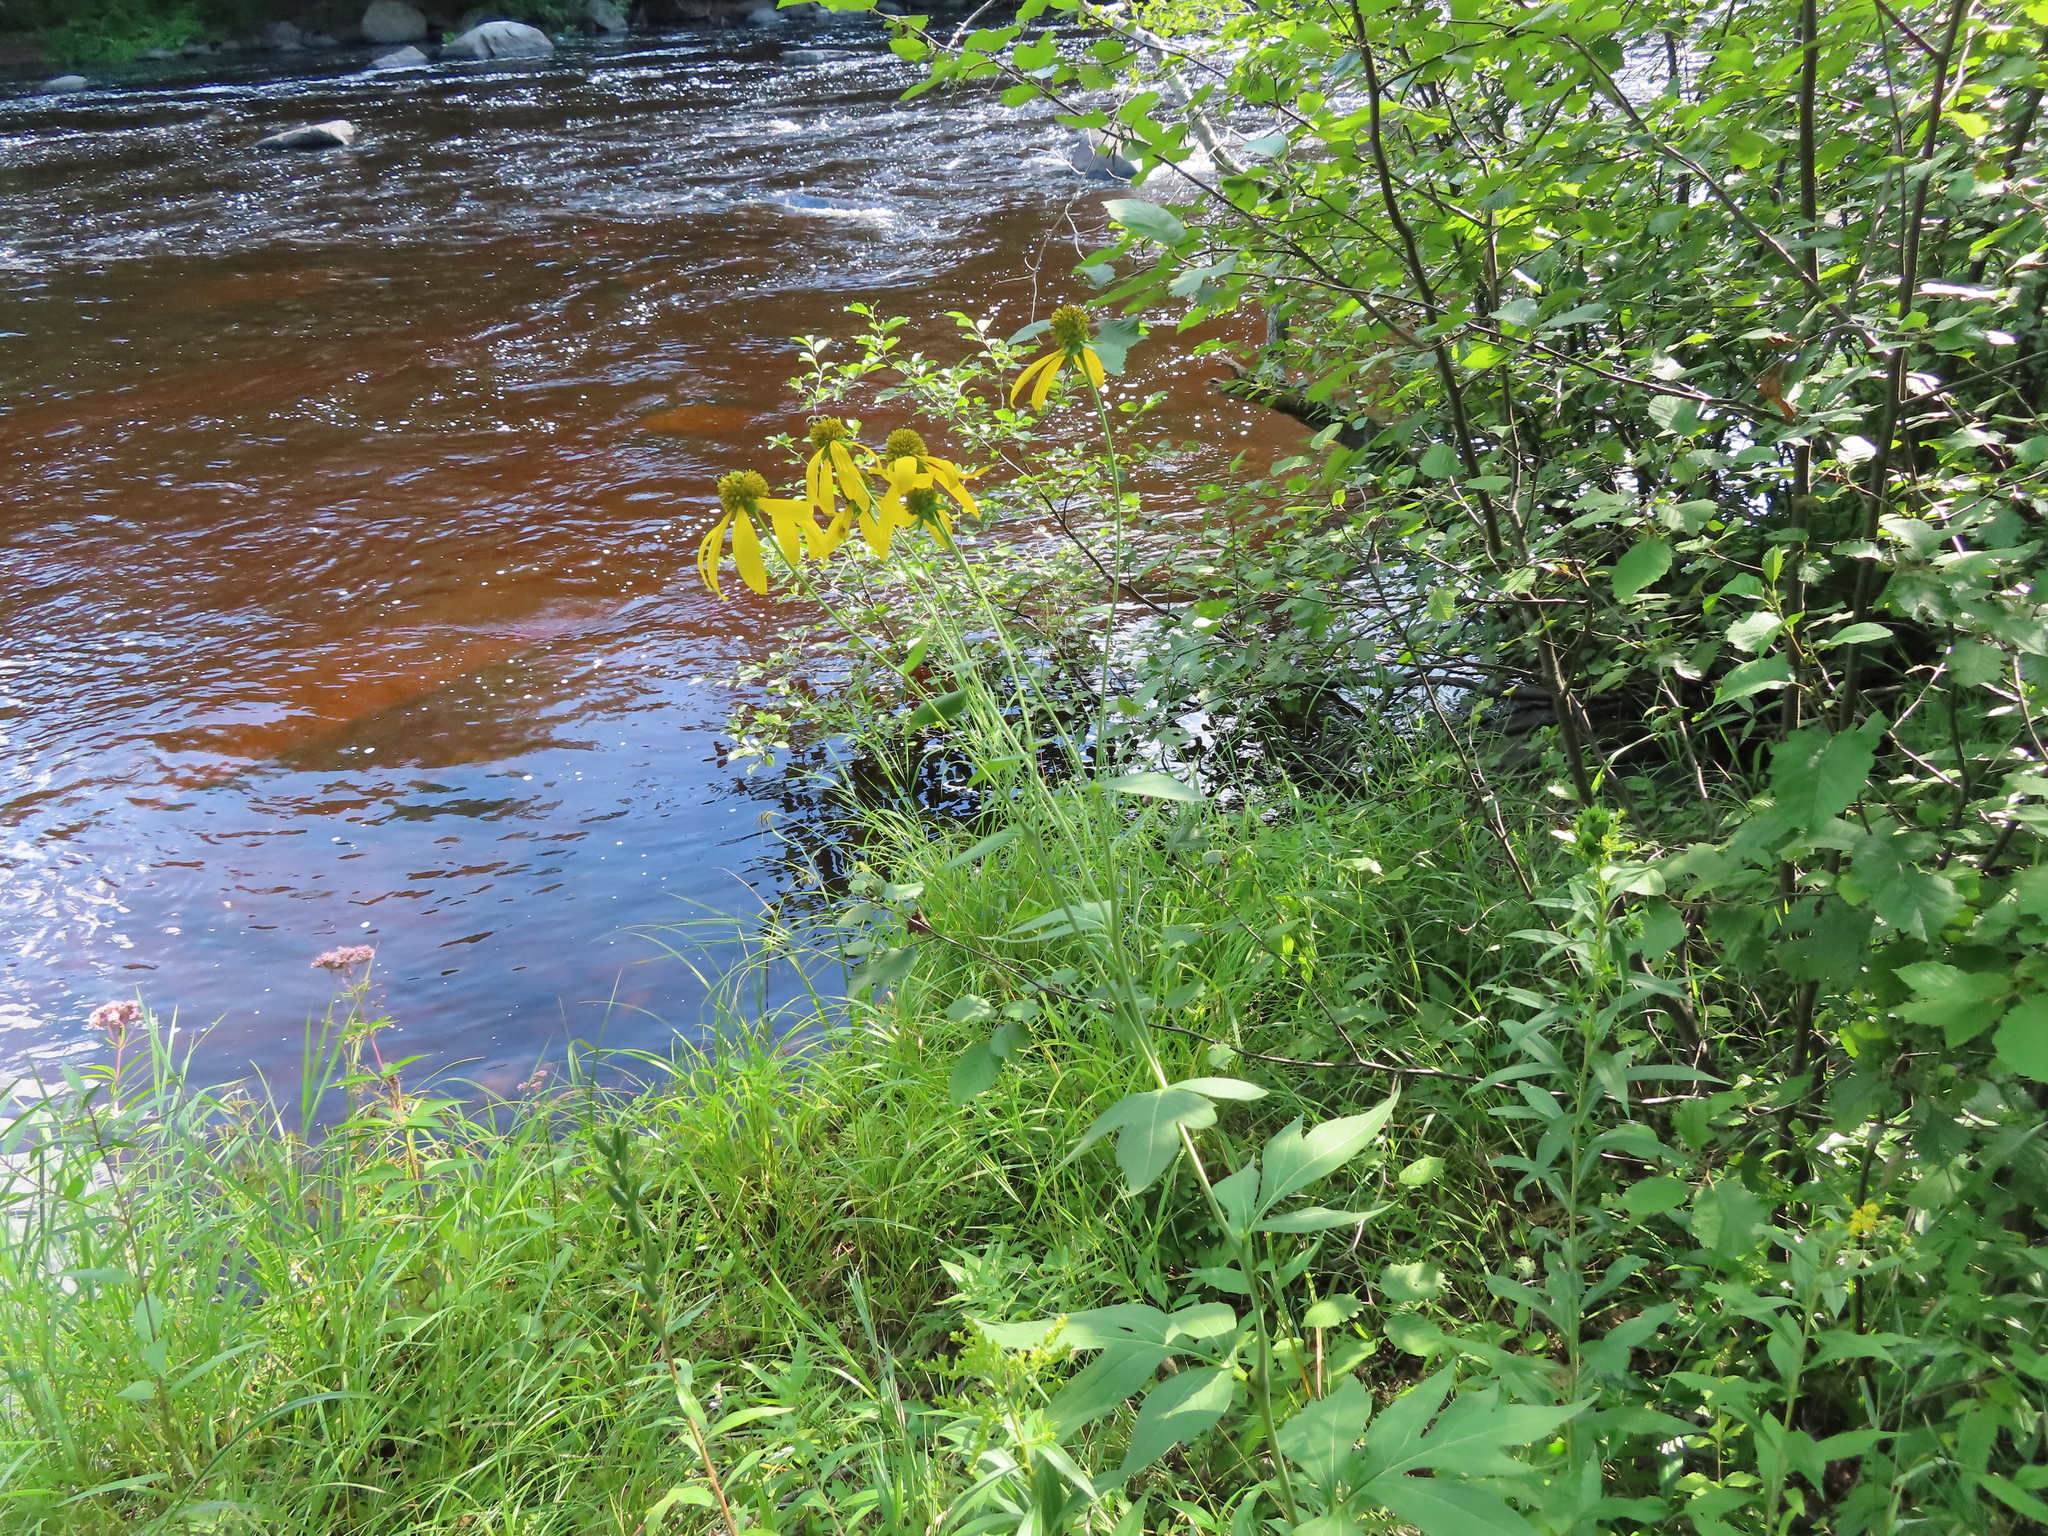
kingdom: Plantae
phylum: Tracheophyta
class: Magnoliopsida
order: Asterales
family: Asteraceae
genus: Rudbeckia
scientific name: Rudbeckia laciniata
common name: Coneflower
